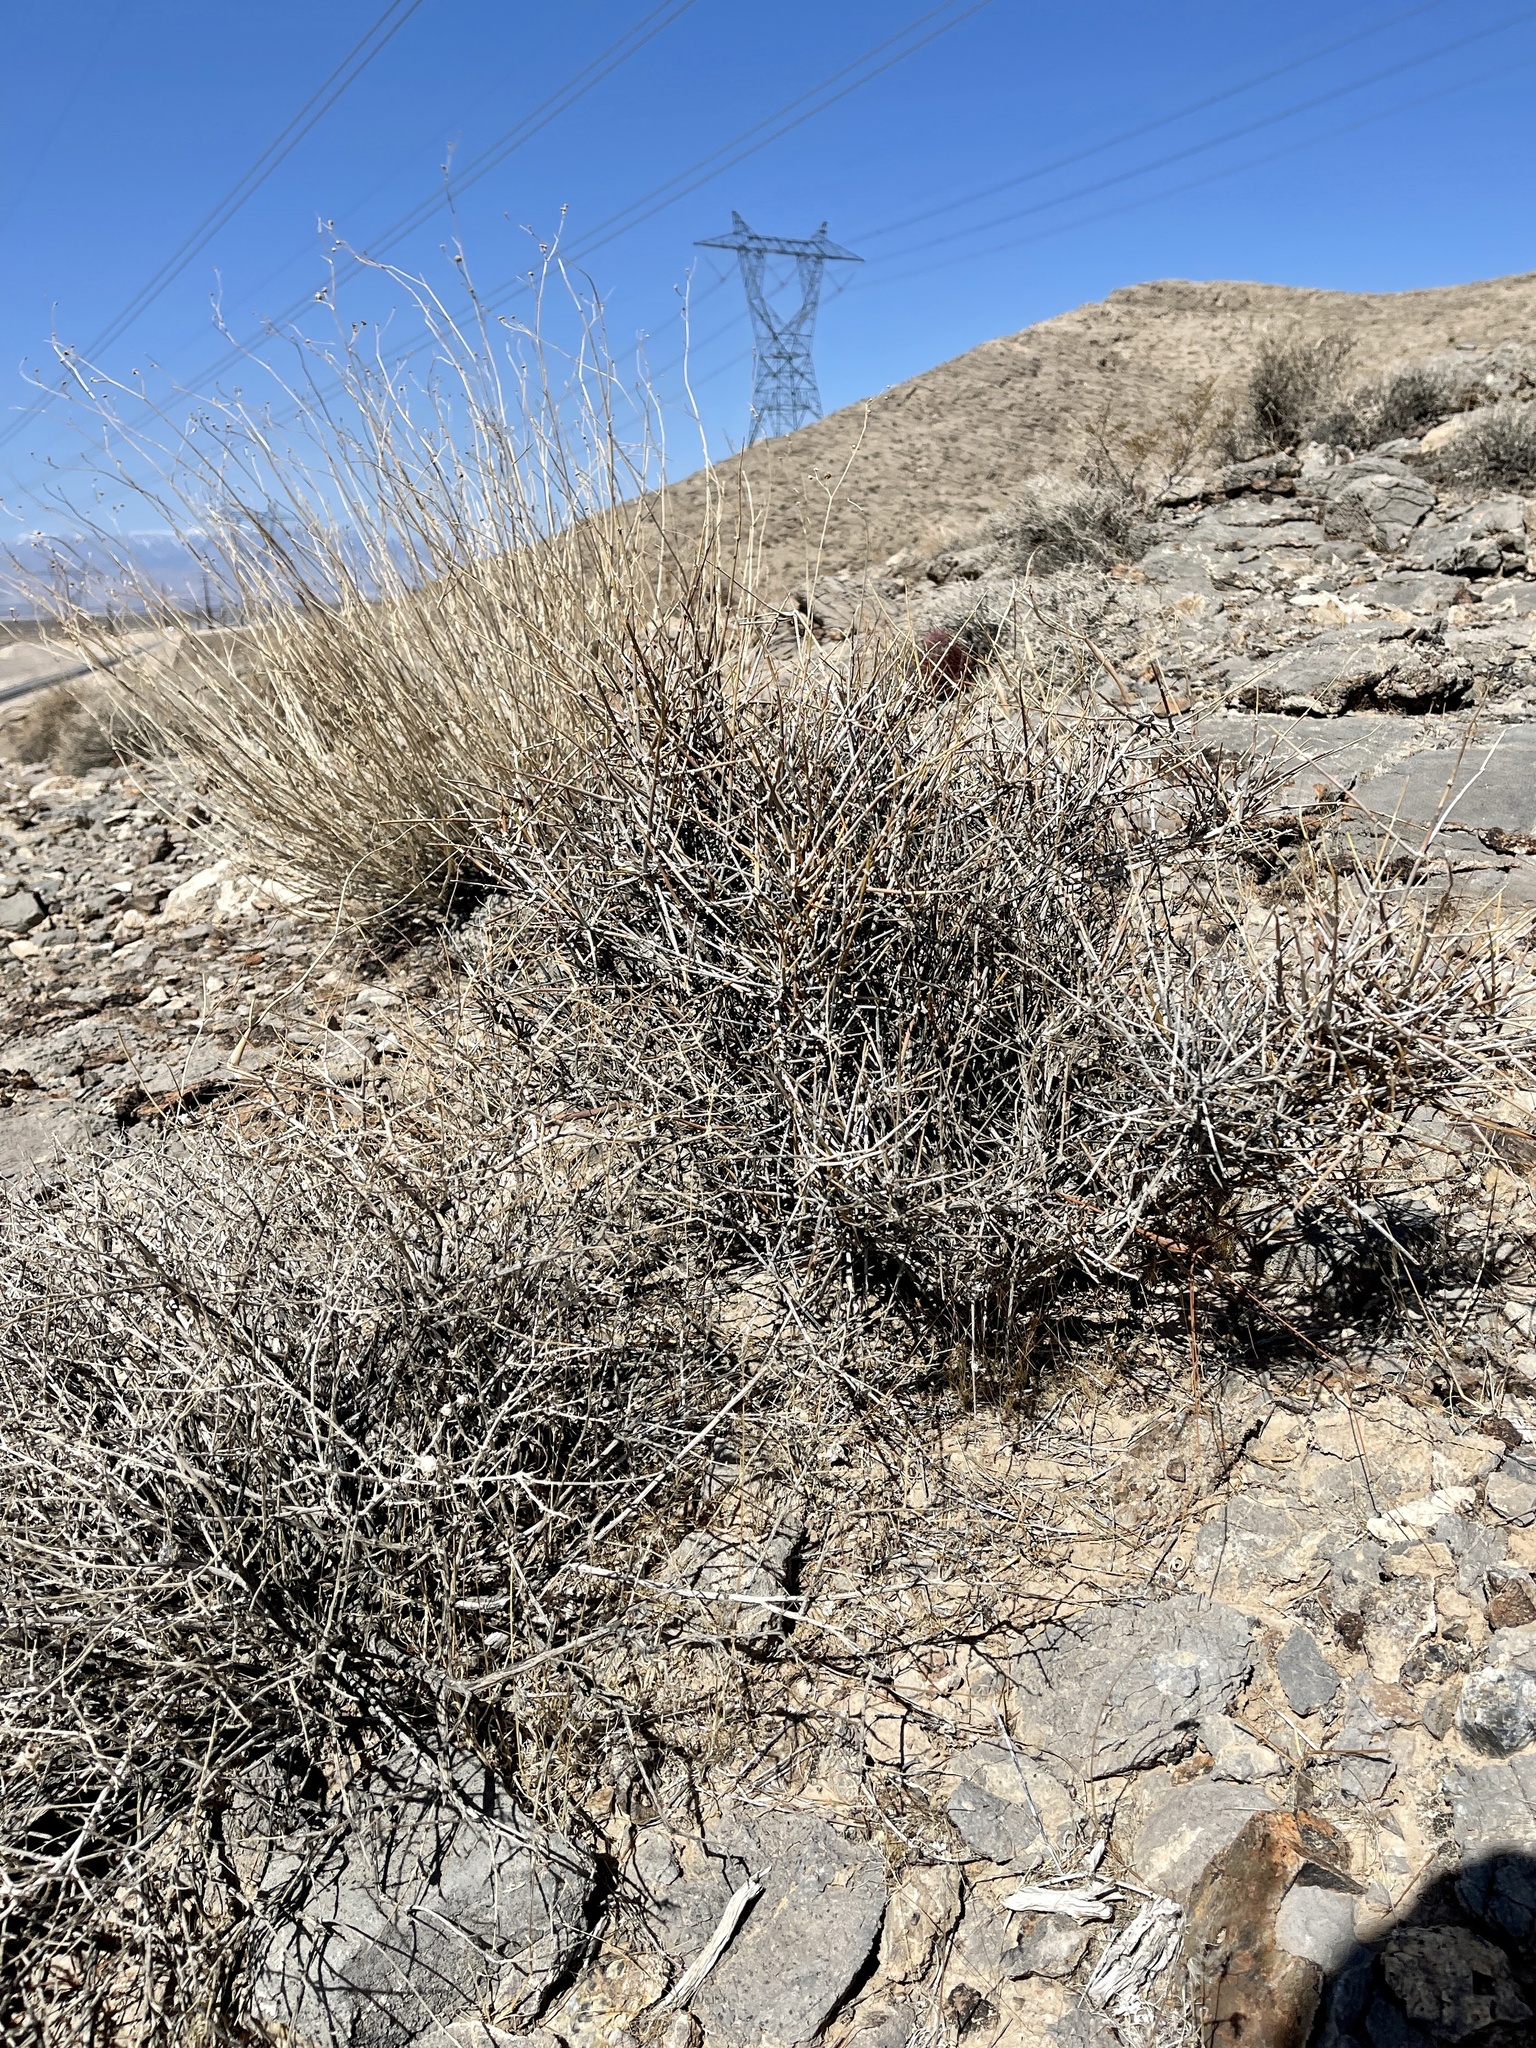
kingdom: Plantae
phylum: Tracheophyta
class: Gnetopsida
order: Ephedrales
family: Ephedraceae
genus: Ephedra
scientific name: Ephedra nevadensis
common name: Gray ephedra
